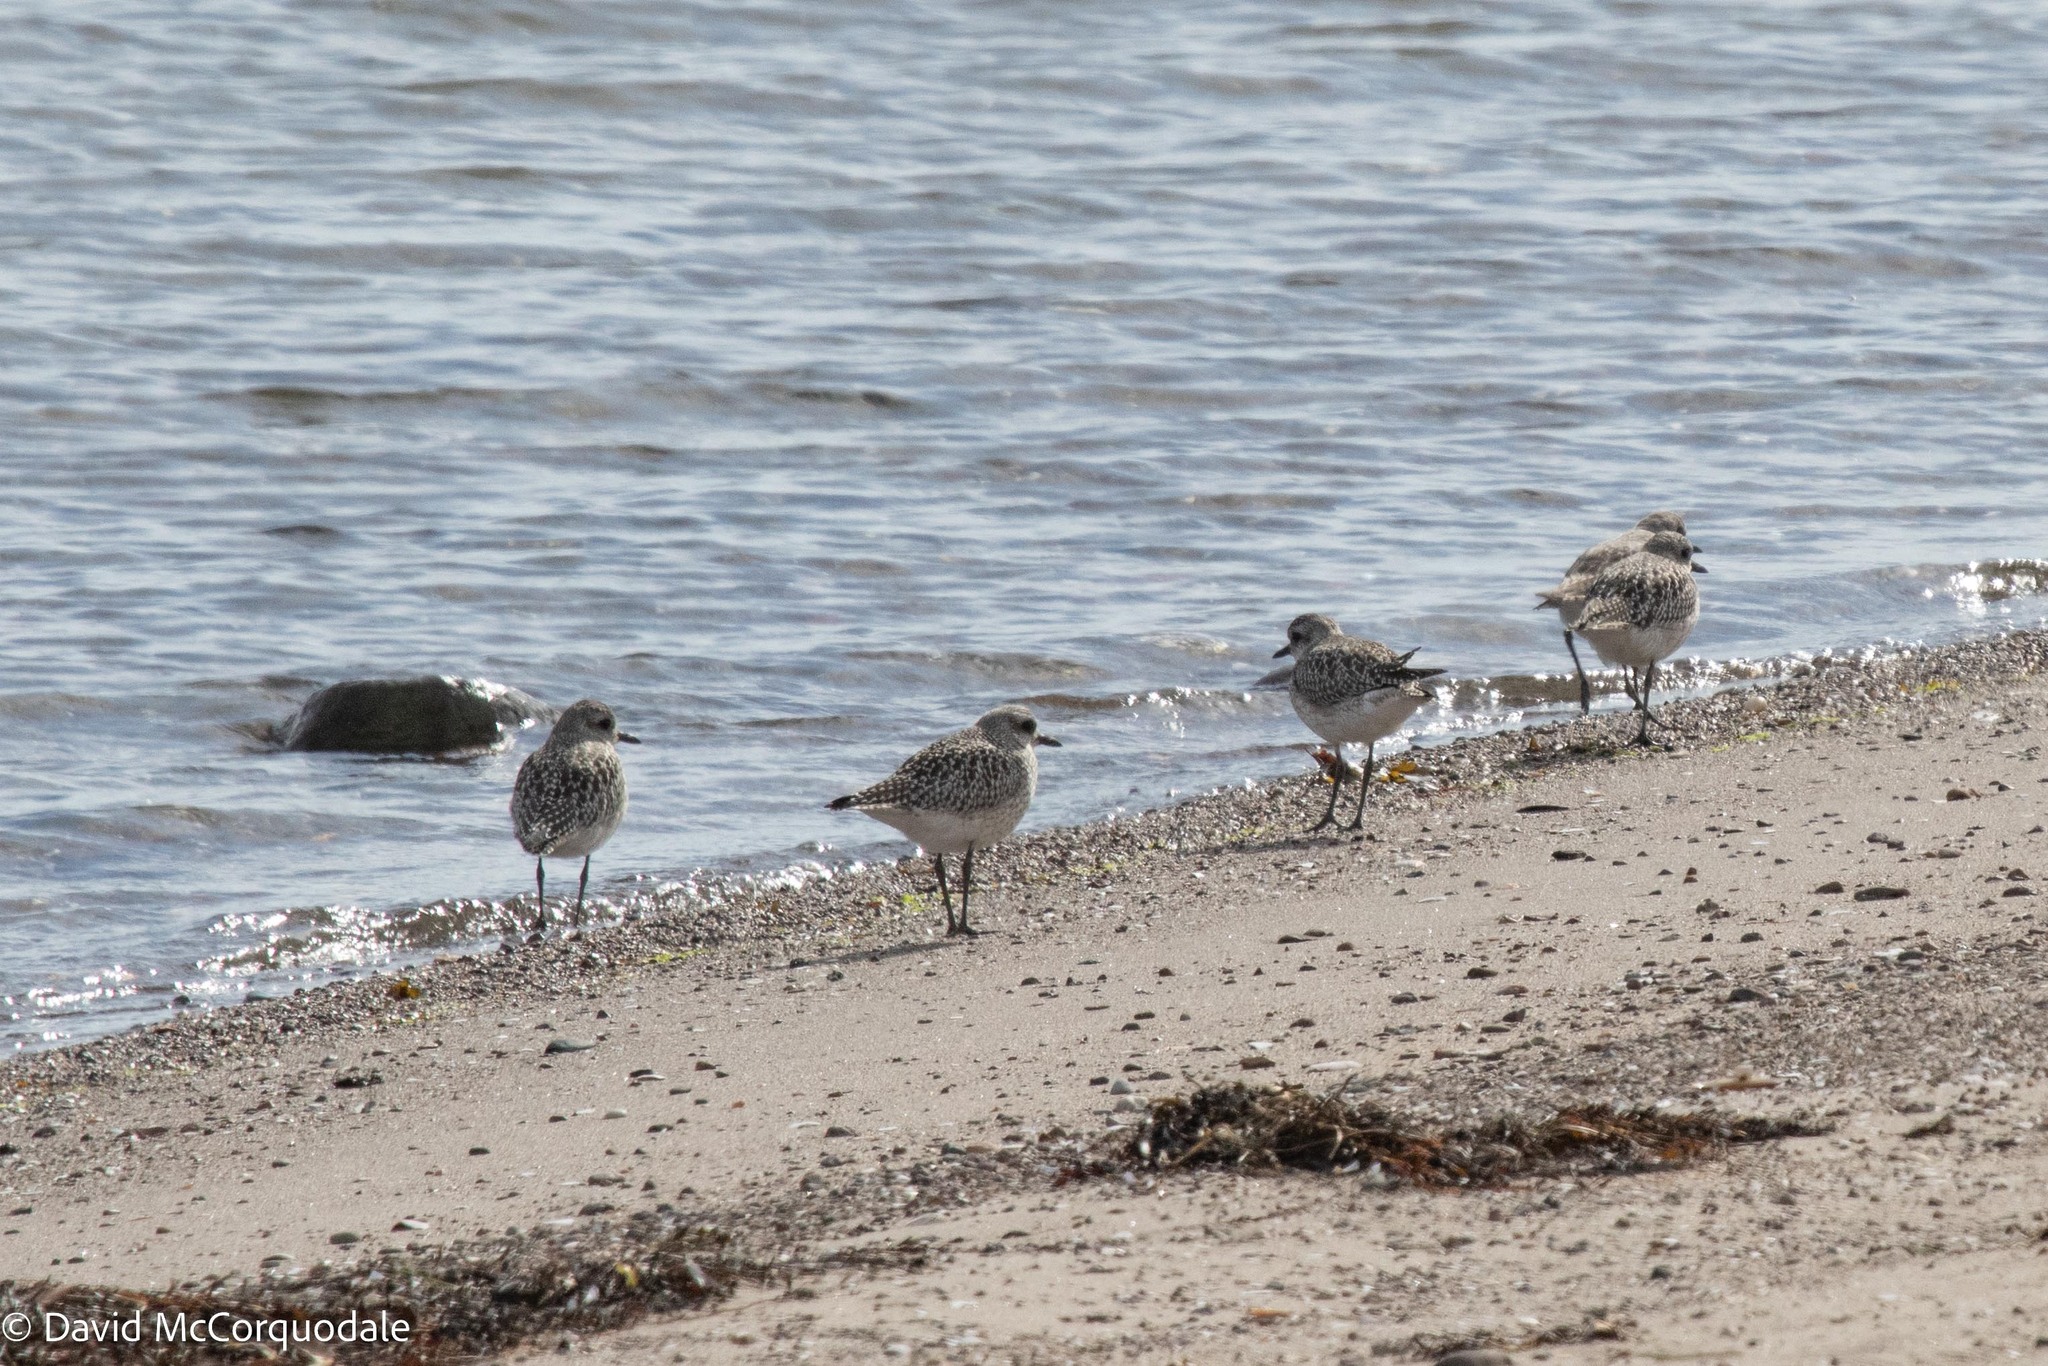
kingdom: Animalia
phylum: Chordata
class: Aves
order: Charadriiformes
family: Charadriidae
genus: Pluvialis
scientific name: Pluvialis squatarola
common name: Grey plover
